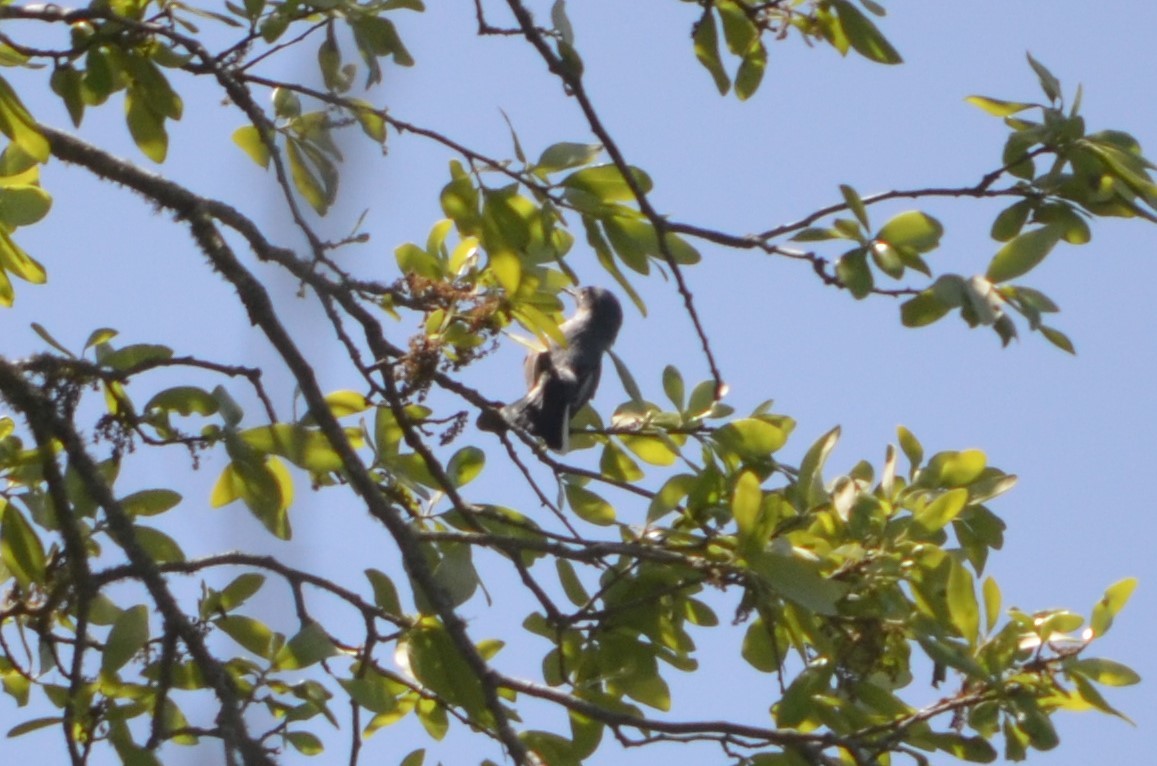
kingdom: Animalia
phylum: Chordata
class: Aves
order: Passeriformes
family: Polioptilidae
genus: Polioptila
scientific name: Polioptila caerulea
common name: Blue-gray gnatcatcher
